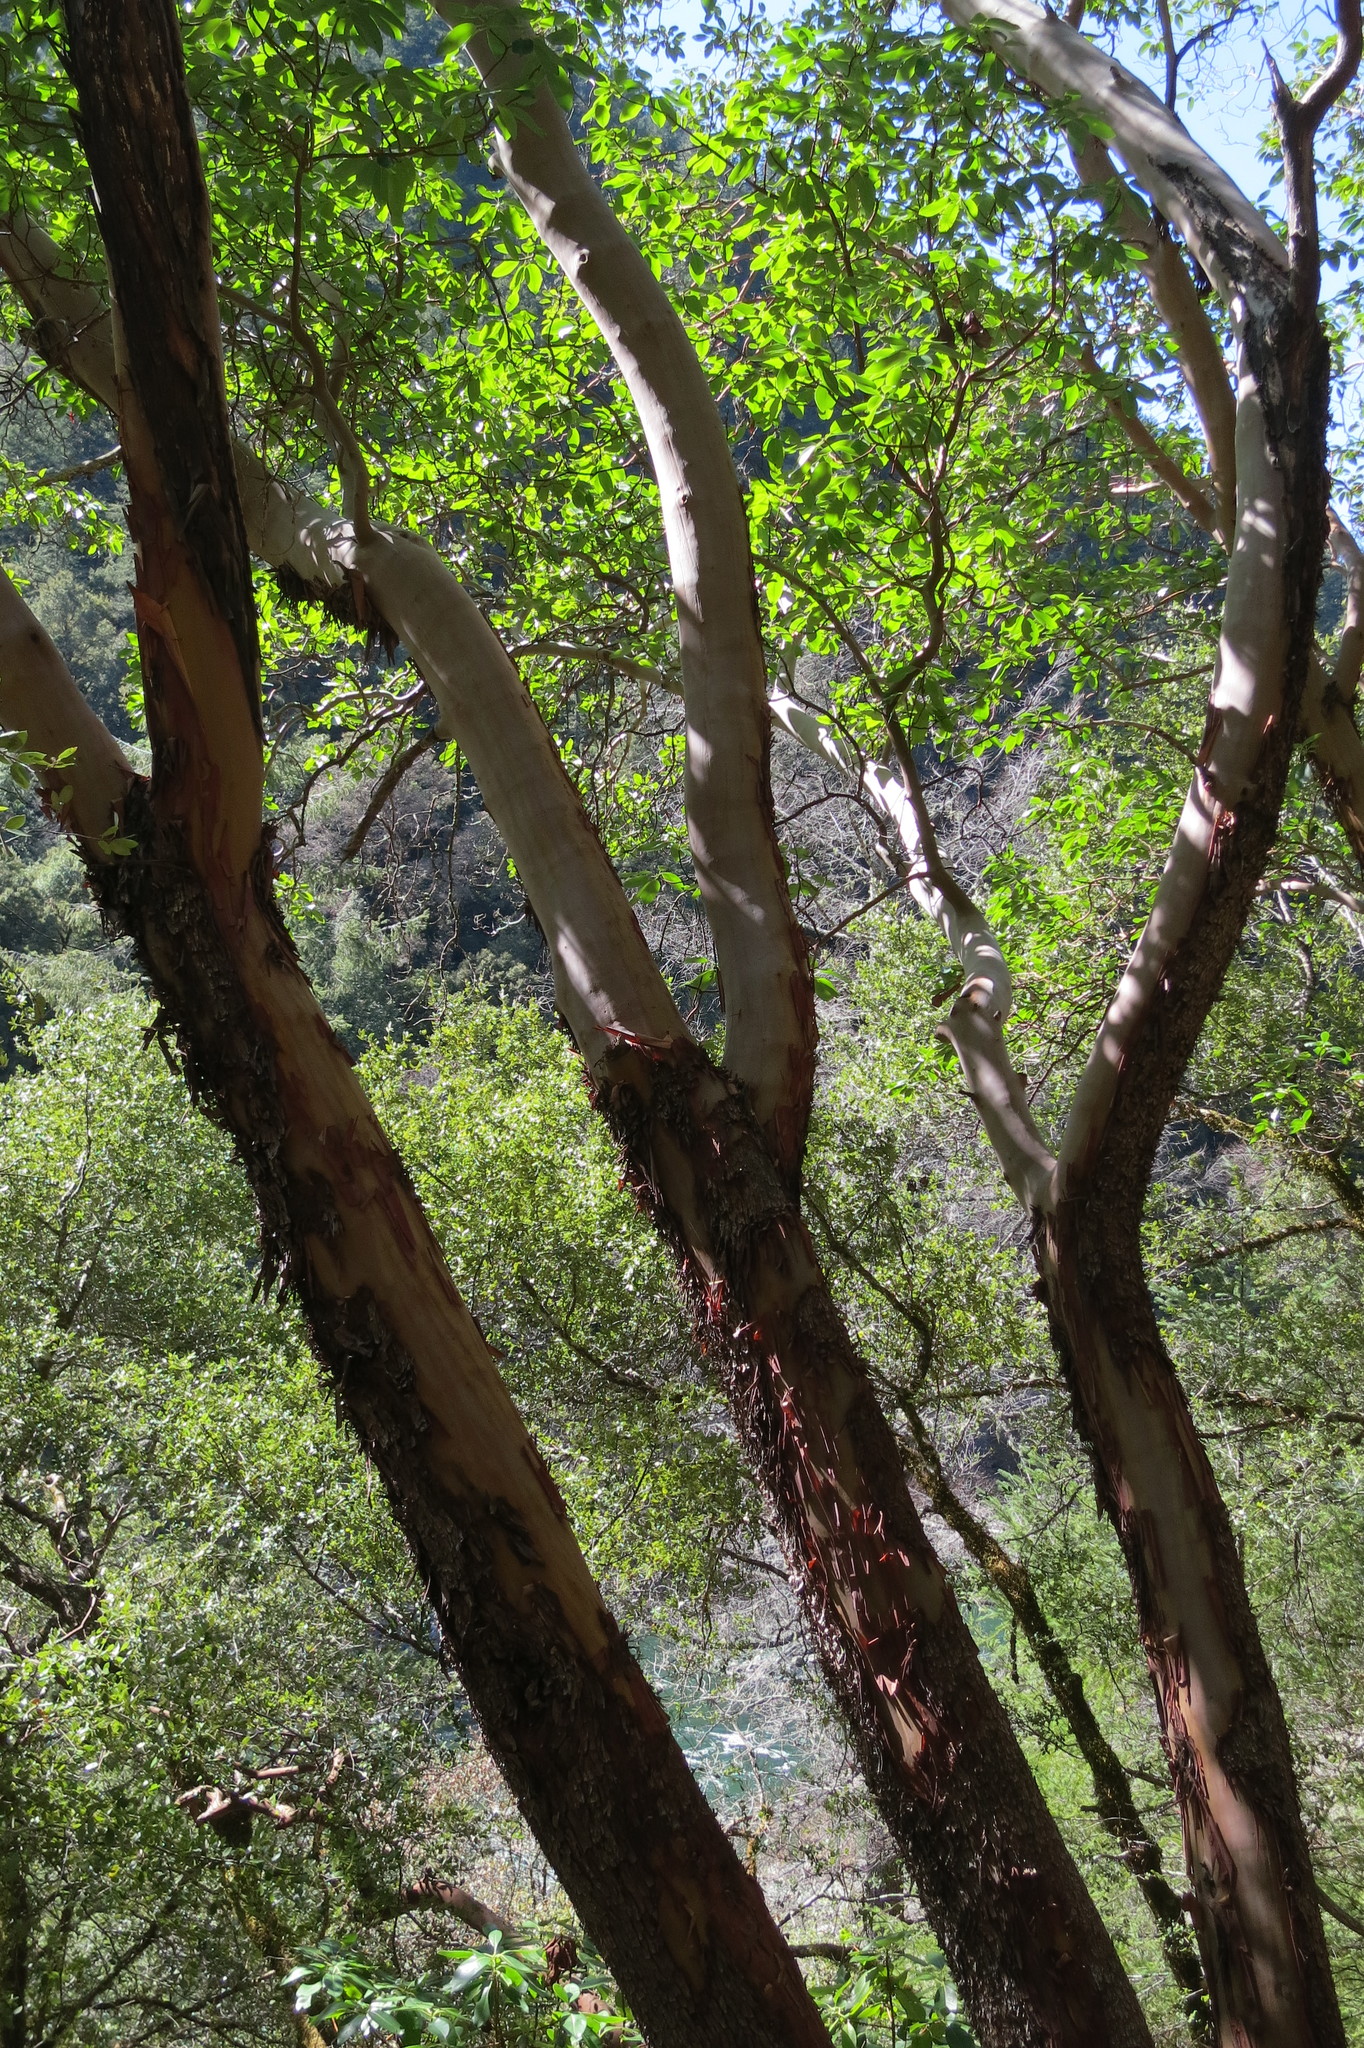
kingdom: Plantae
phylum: Tracheophyta
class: Magnoliopsida
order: Ericales
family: Ericaceae
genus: Arbutus
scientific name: Arbutus menziesii
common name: Pacific madrone
